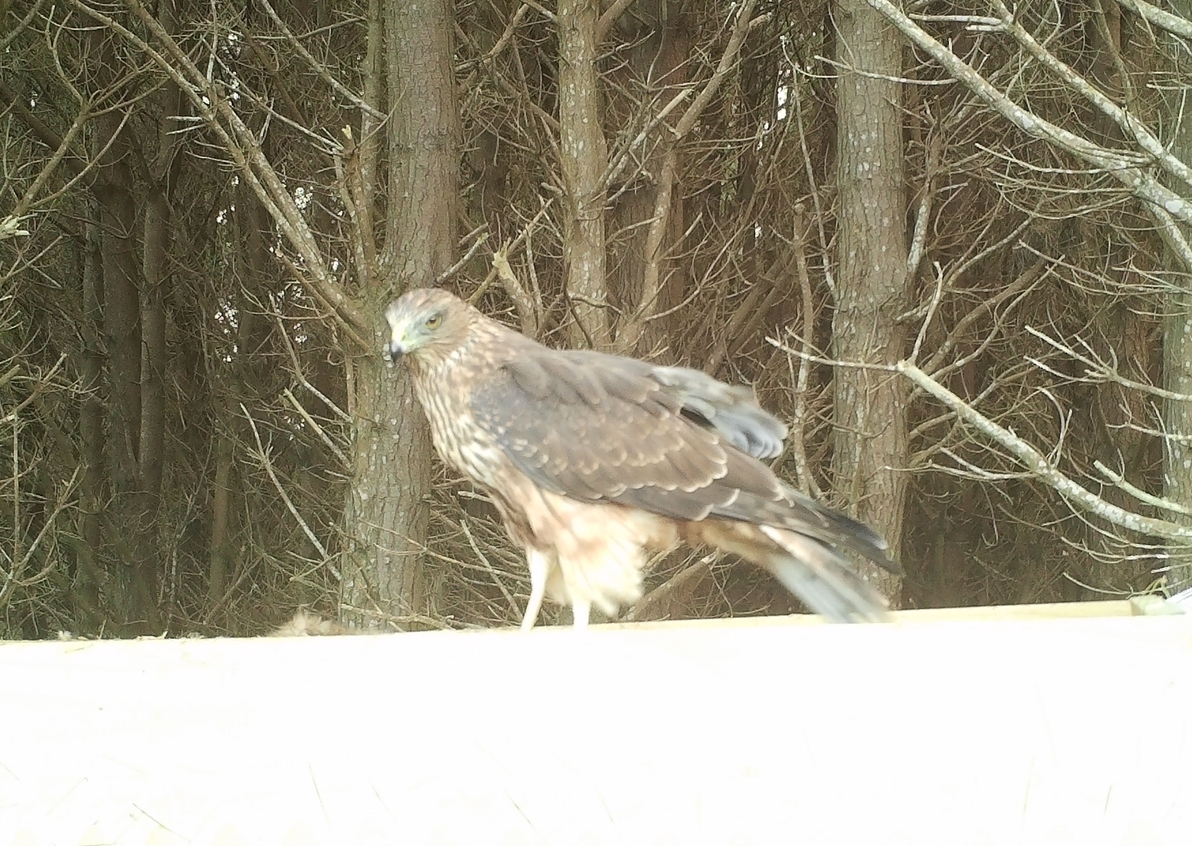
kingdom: Animalia
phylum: Chordata
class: Aves
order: Accipitriformes
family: Accipitridae
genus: Circus
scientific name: Circus approximans
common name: Swamp harrier
